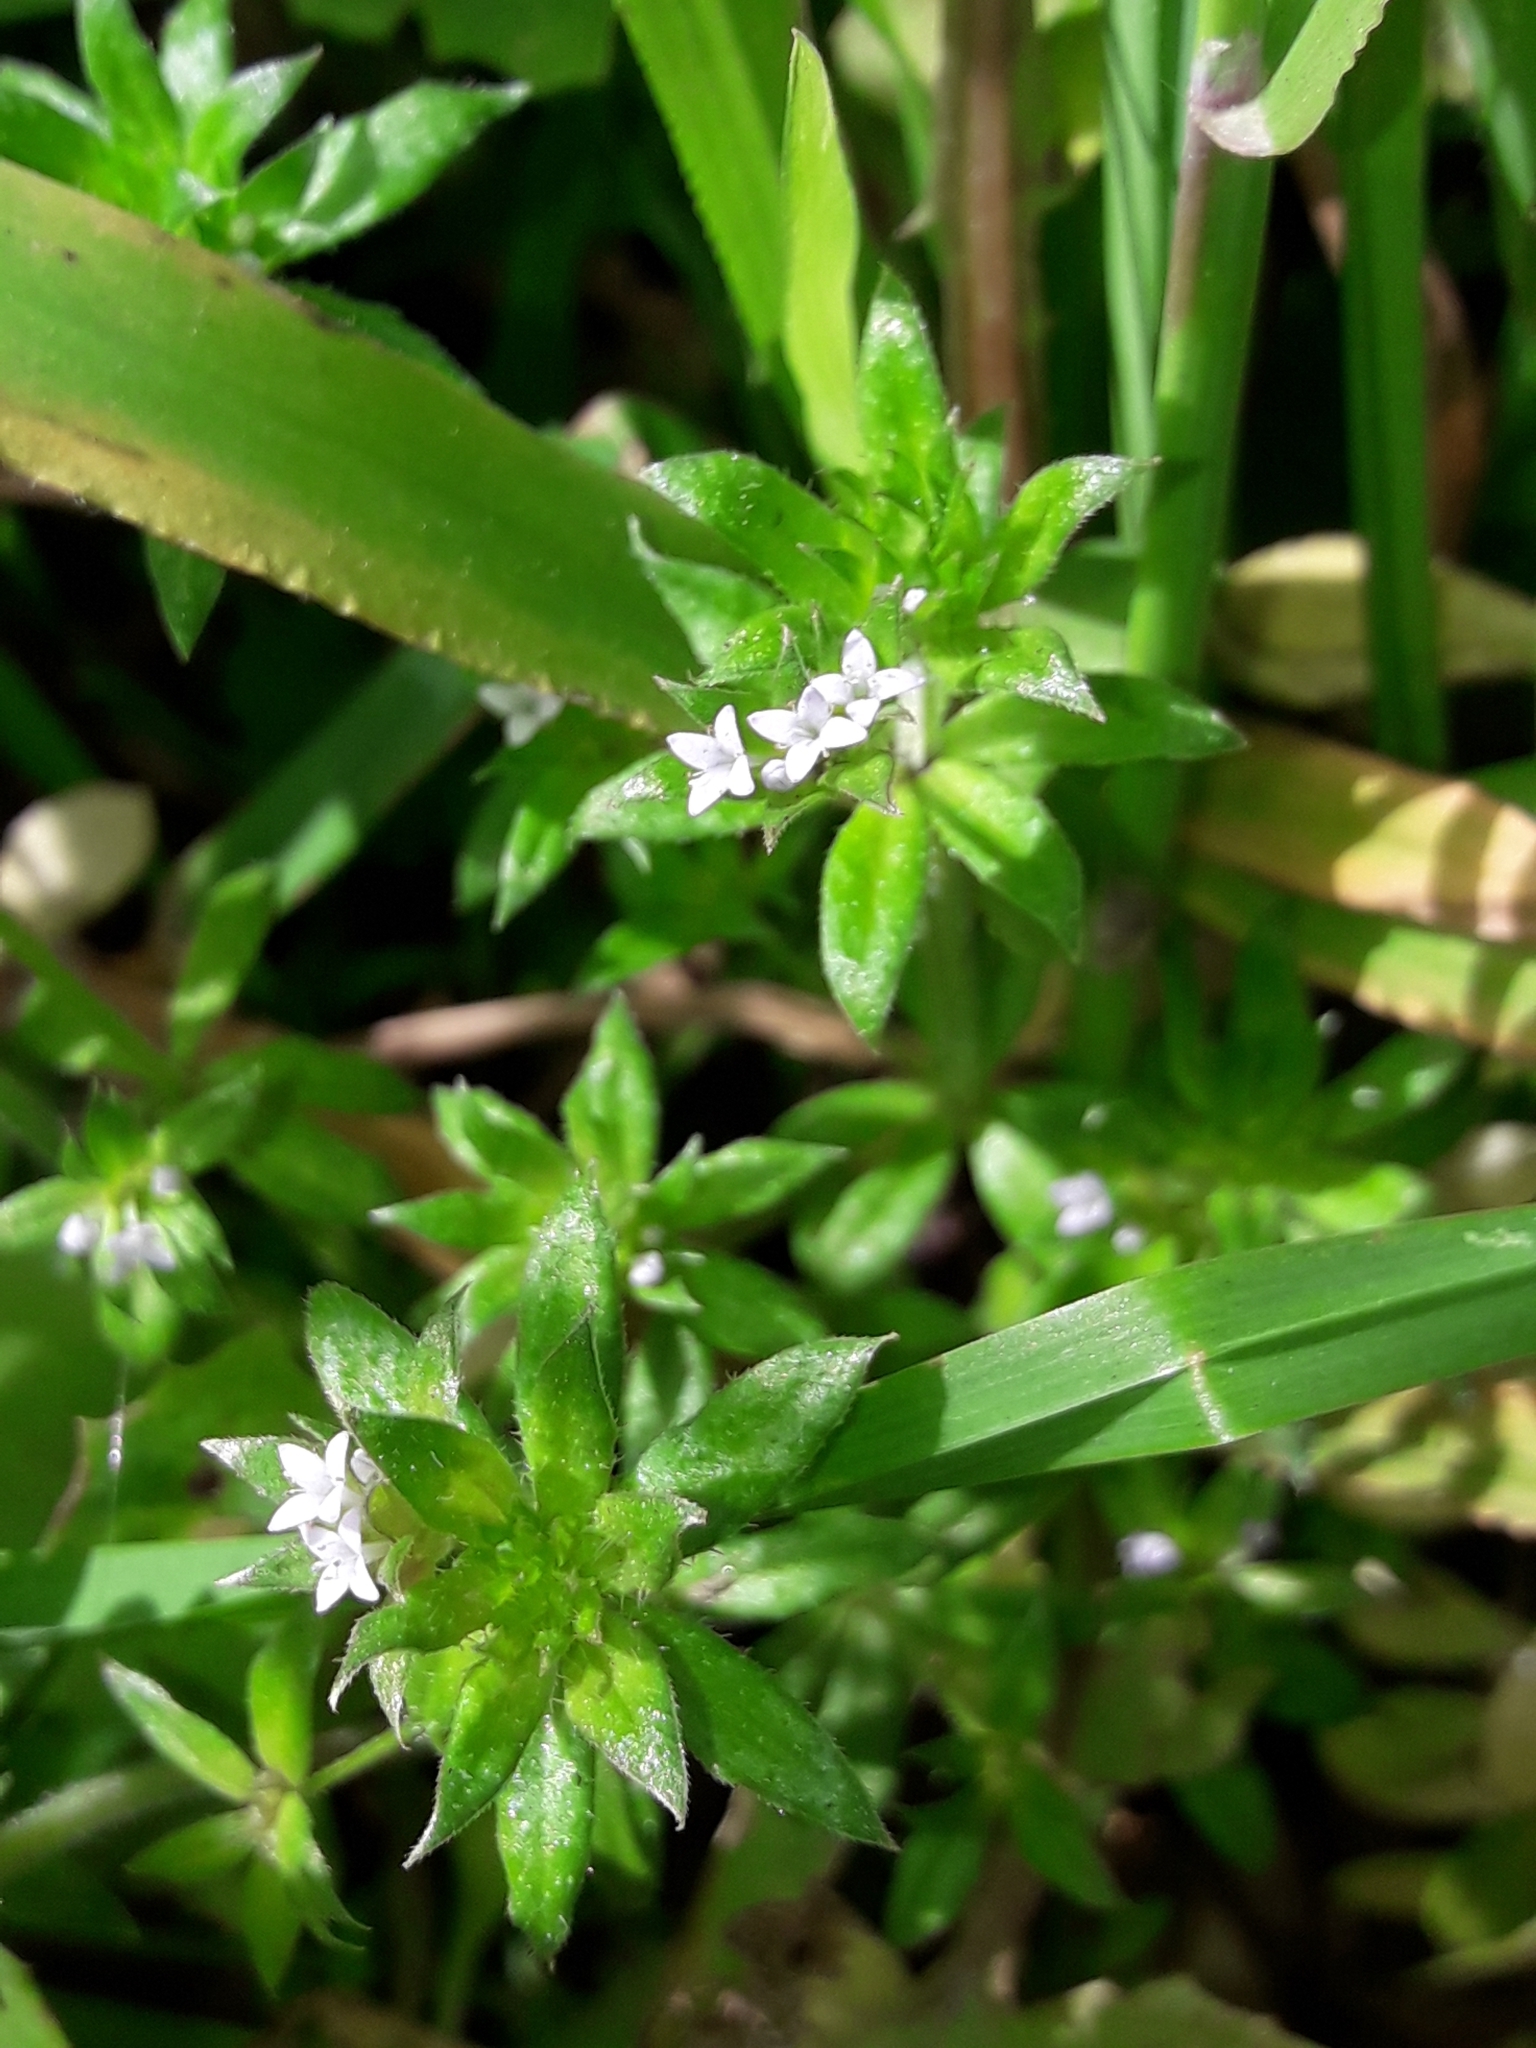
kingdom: Plantae
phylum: Tracheophyta
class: Magnoliopsida
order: Gentianales
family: Rubiaceae
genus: Sherardia
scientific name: Sherardia arvensis
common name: Field madder
